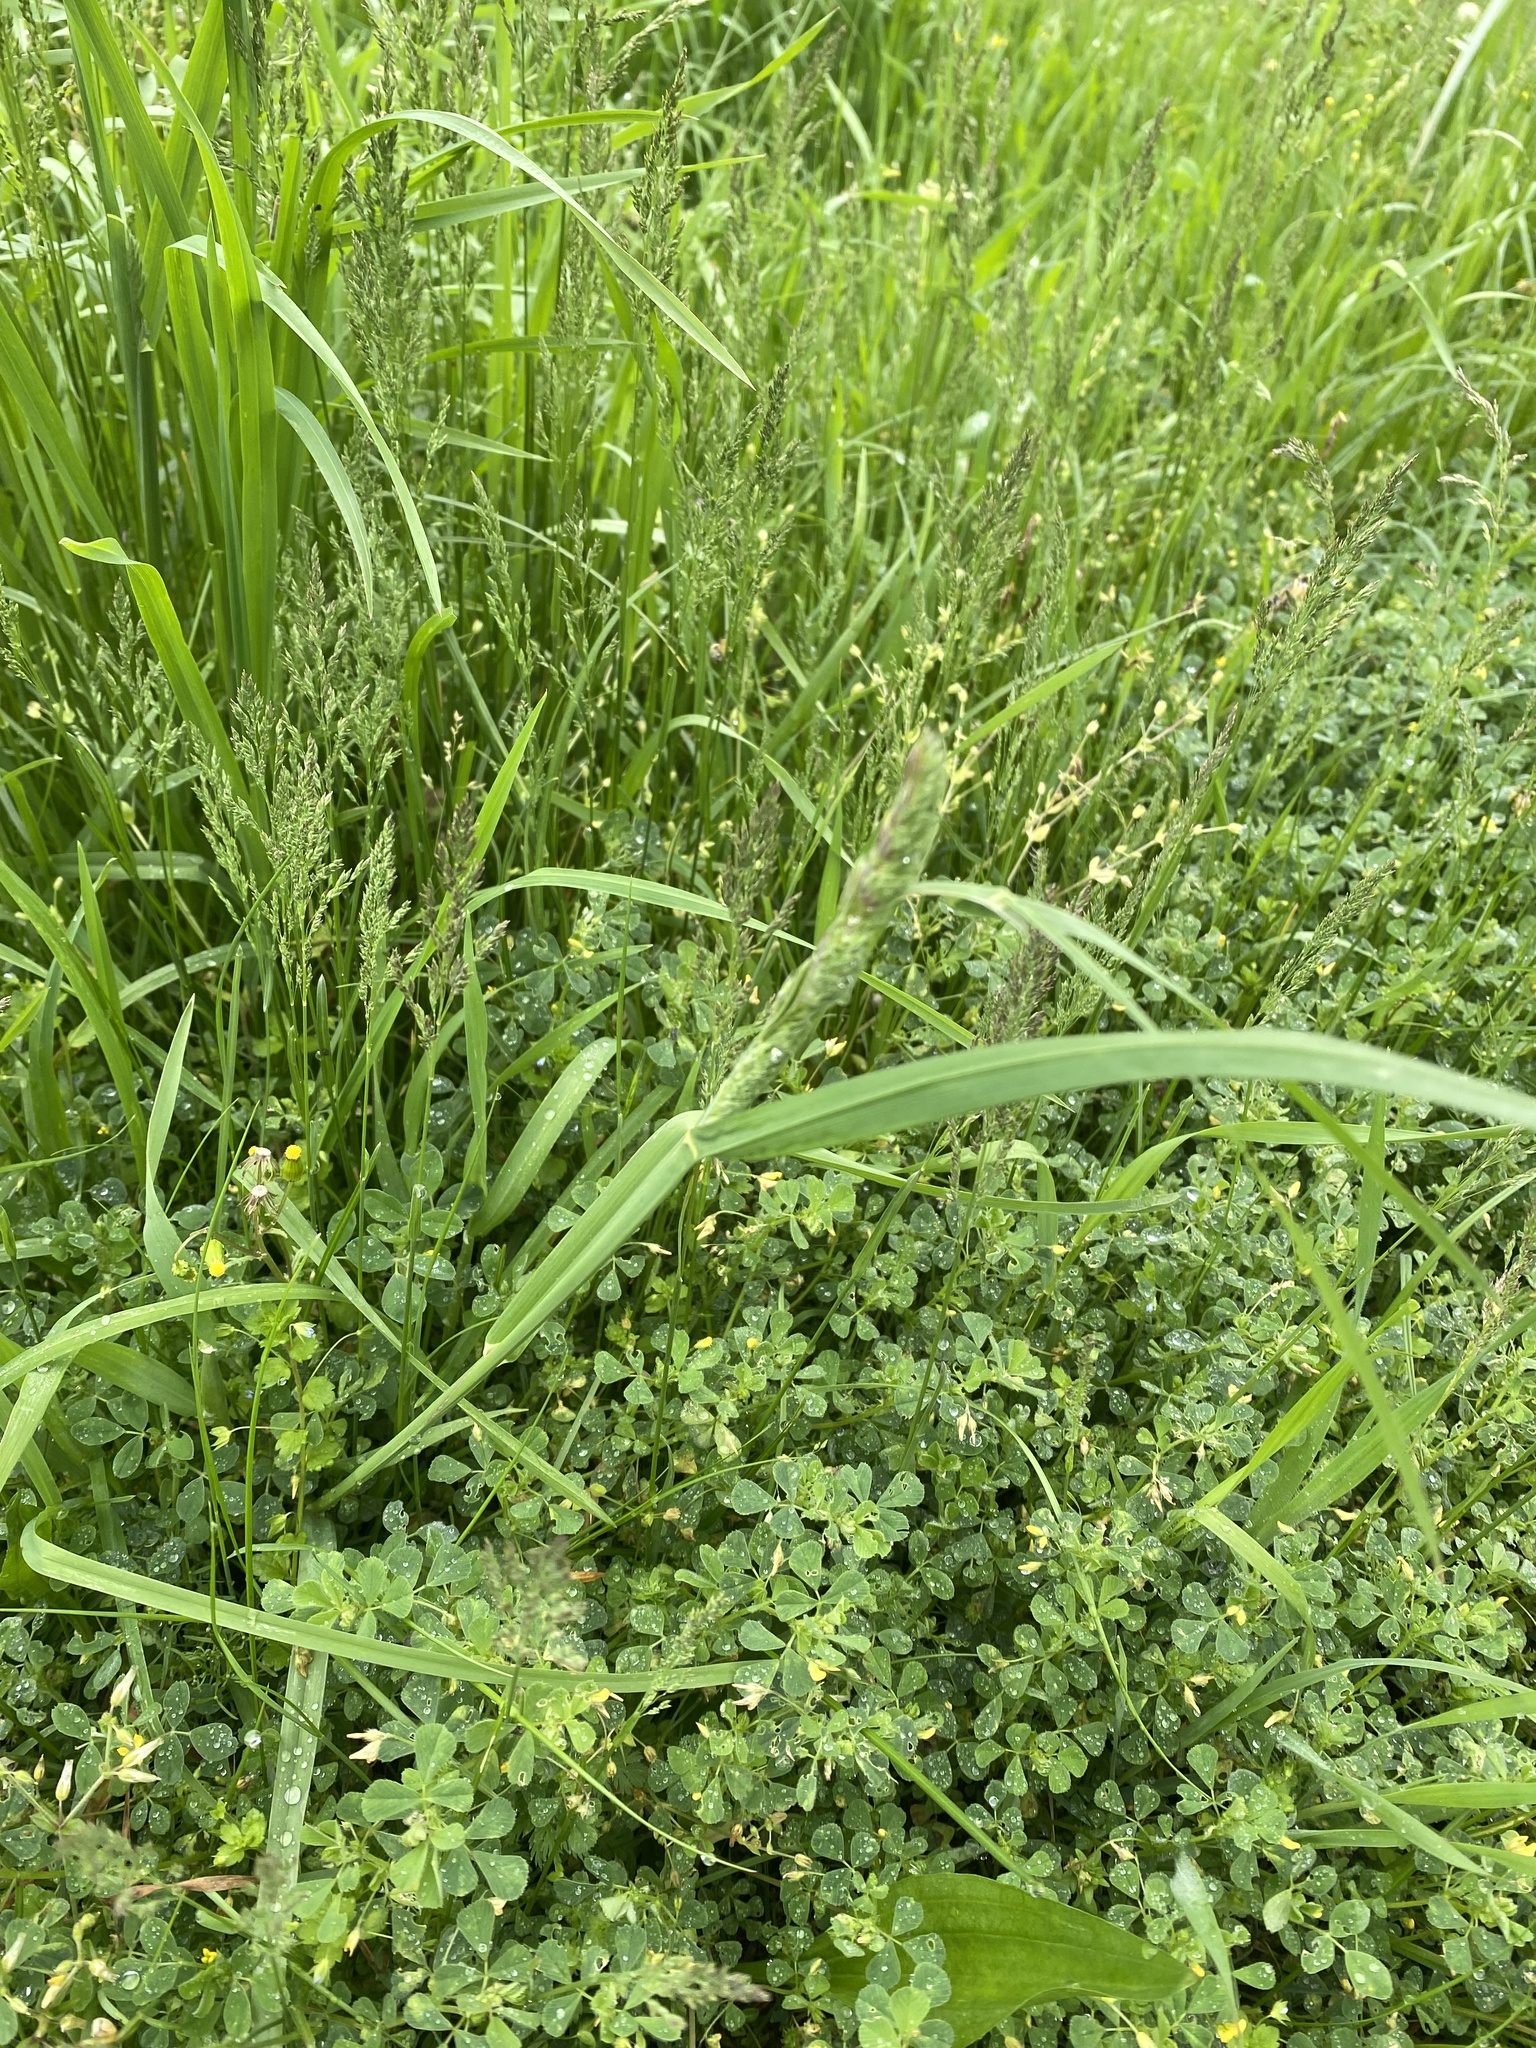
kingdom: Plantae
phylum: Tracheophyta
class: Liliopsida
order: Poales
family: Poaceae
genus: Dactylis
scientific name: Dactylis glomerata
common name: Orchardgrass
